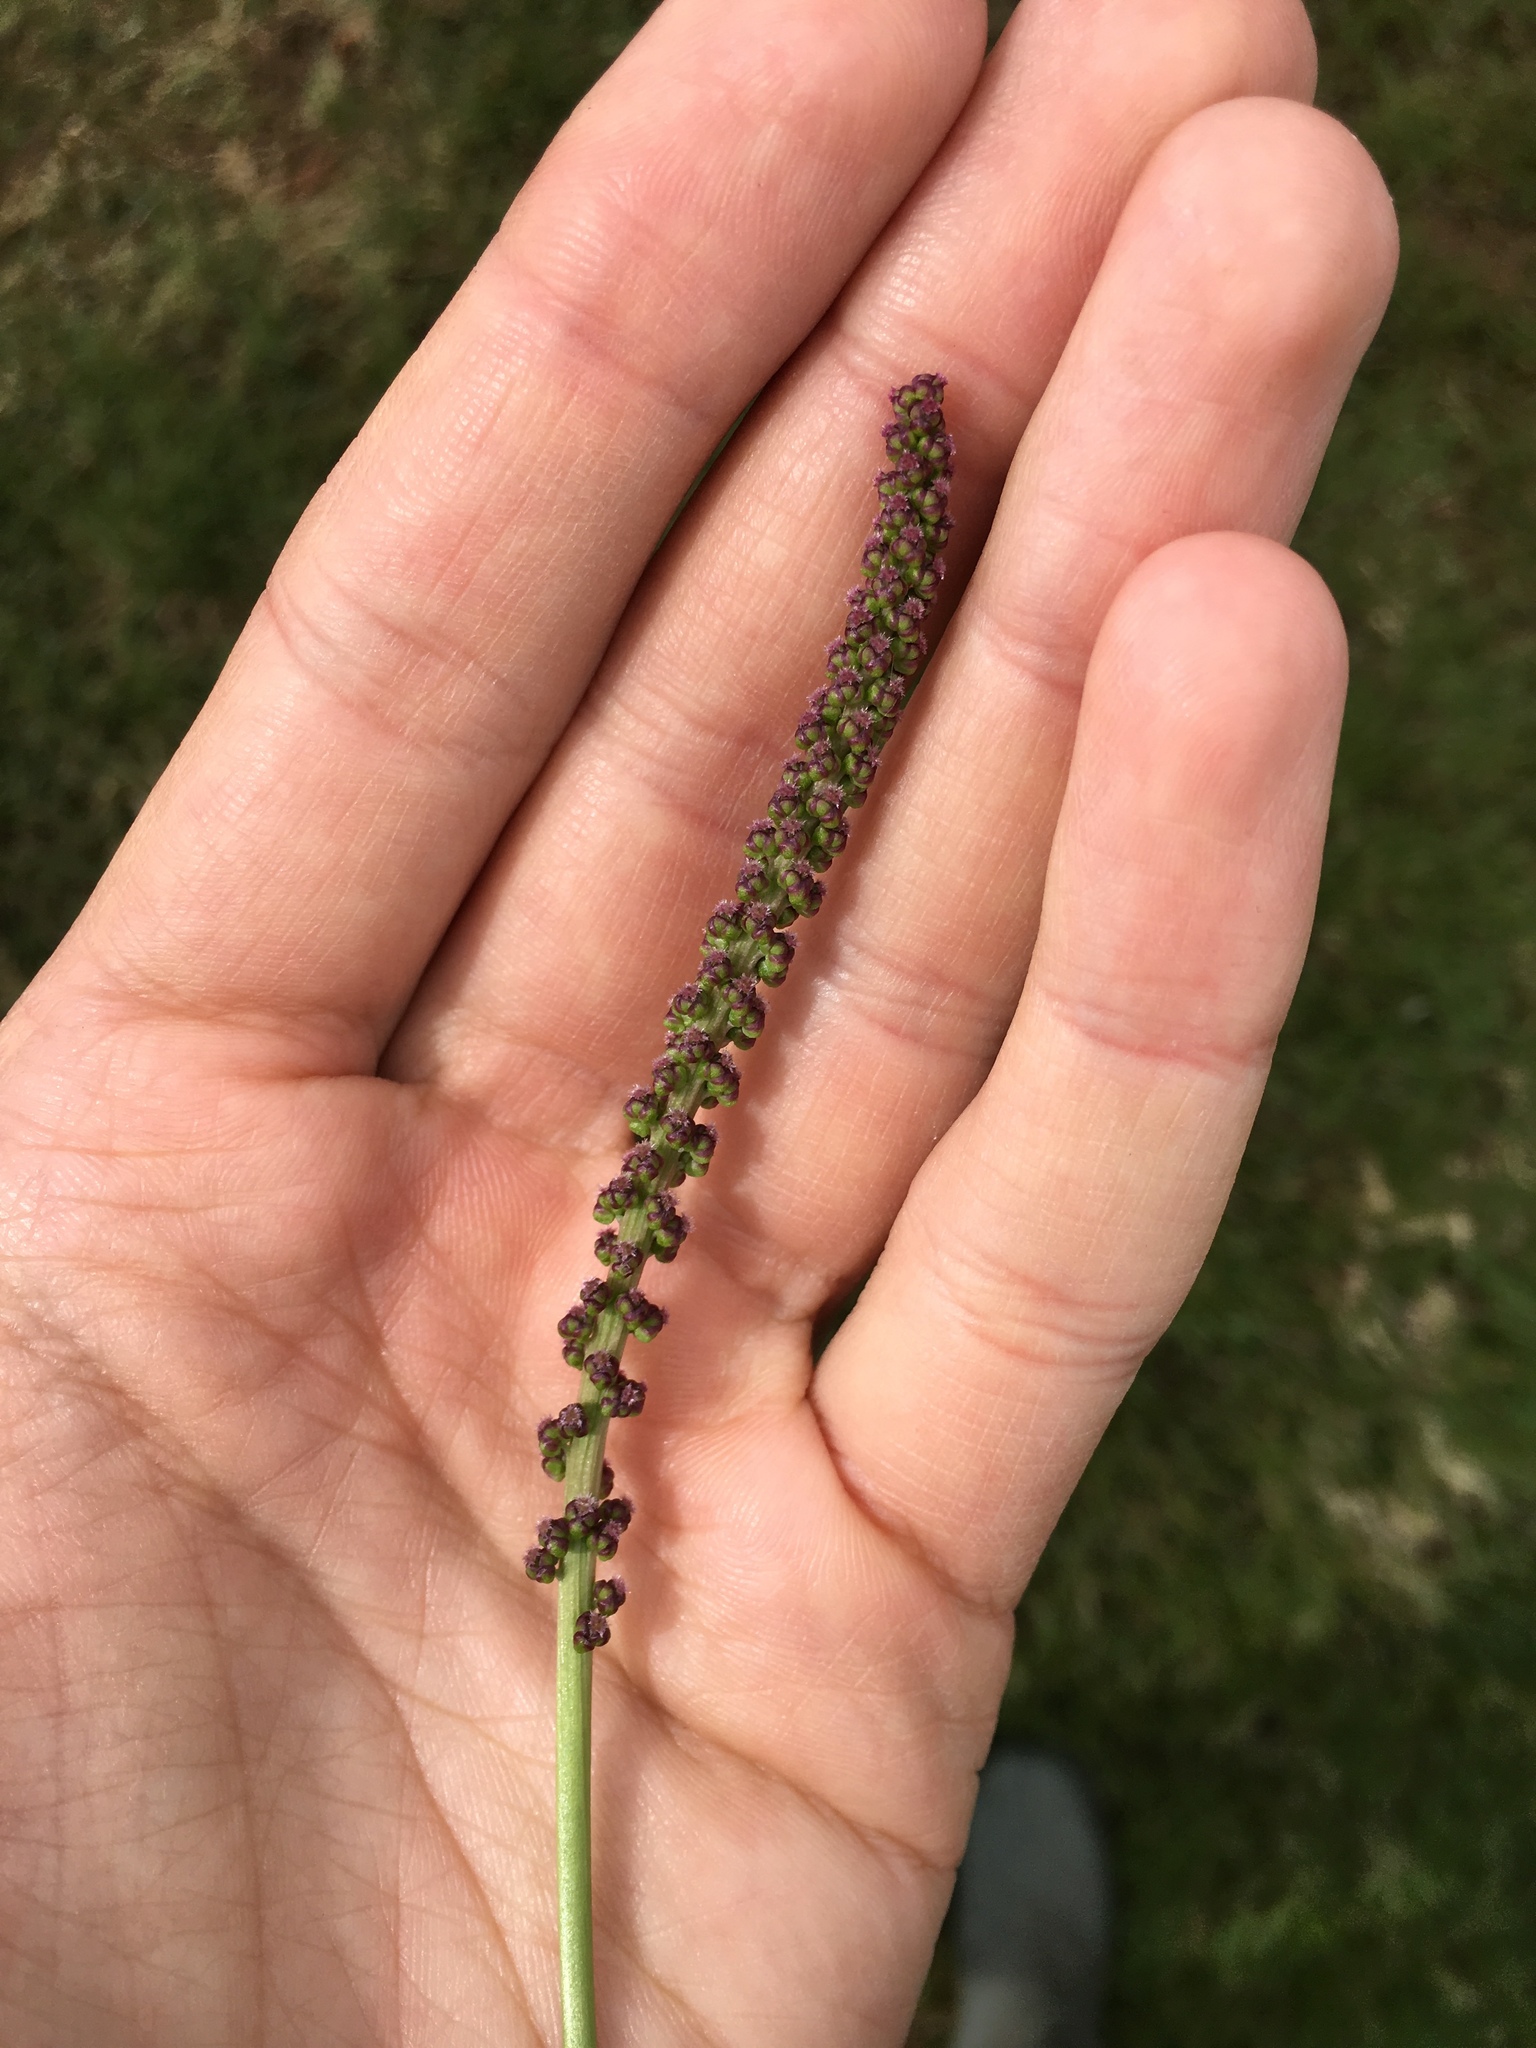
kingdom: Plantae
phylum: Tracheophyta
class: Liliopsida
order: Alismatales
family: Juncaginaceae
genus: Triglochin
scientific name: Triglochin maritima
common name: Sea arrowgrass
